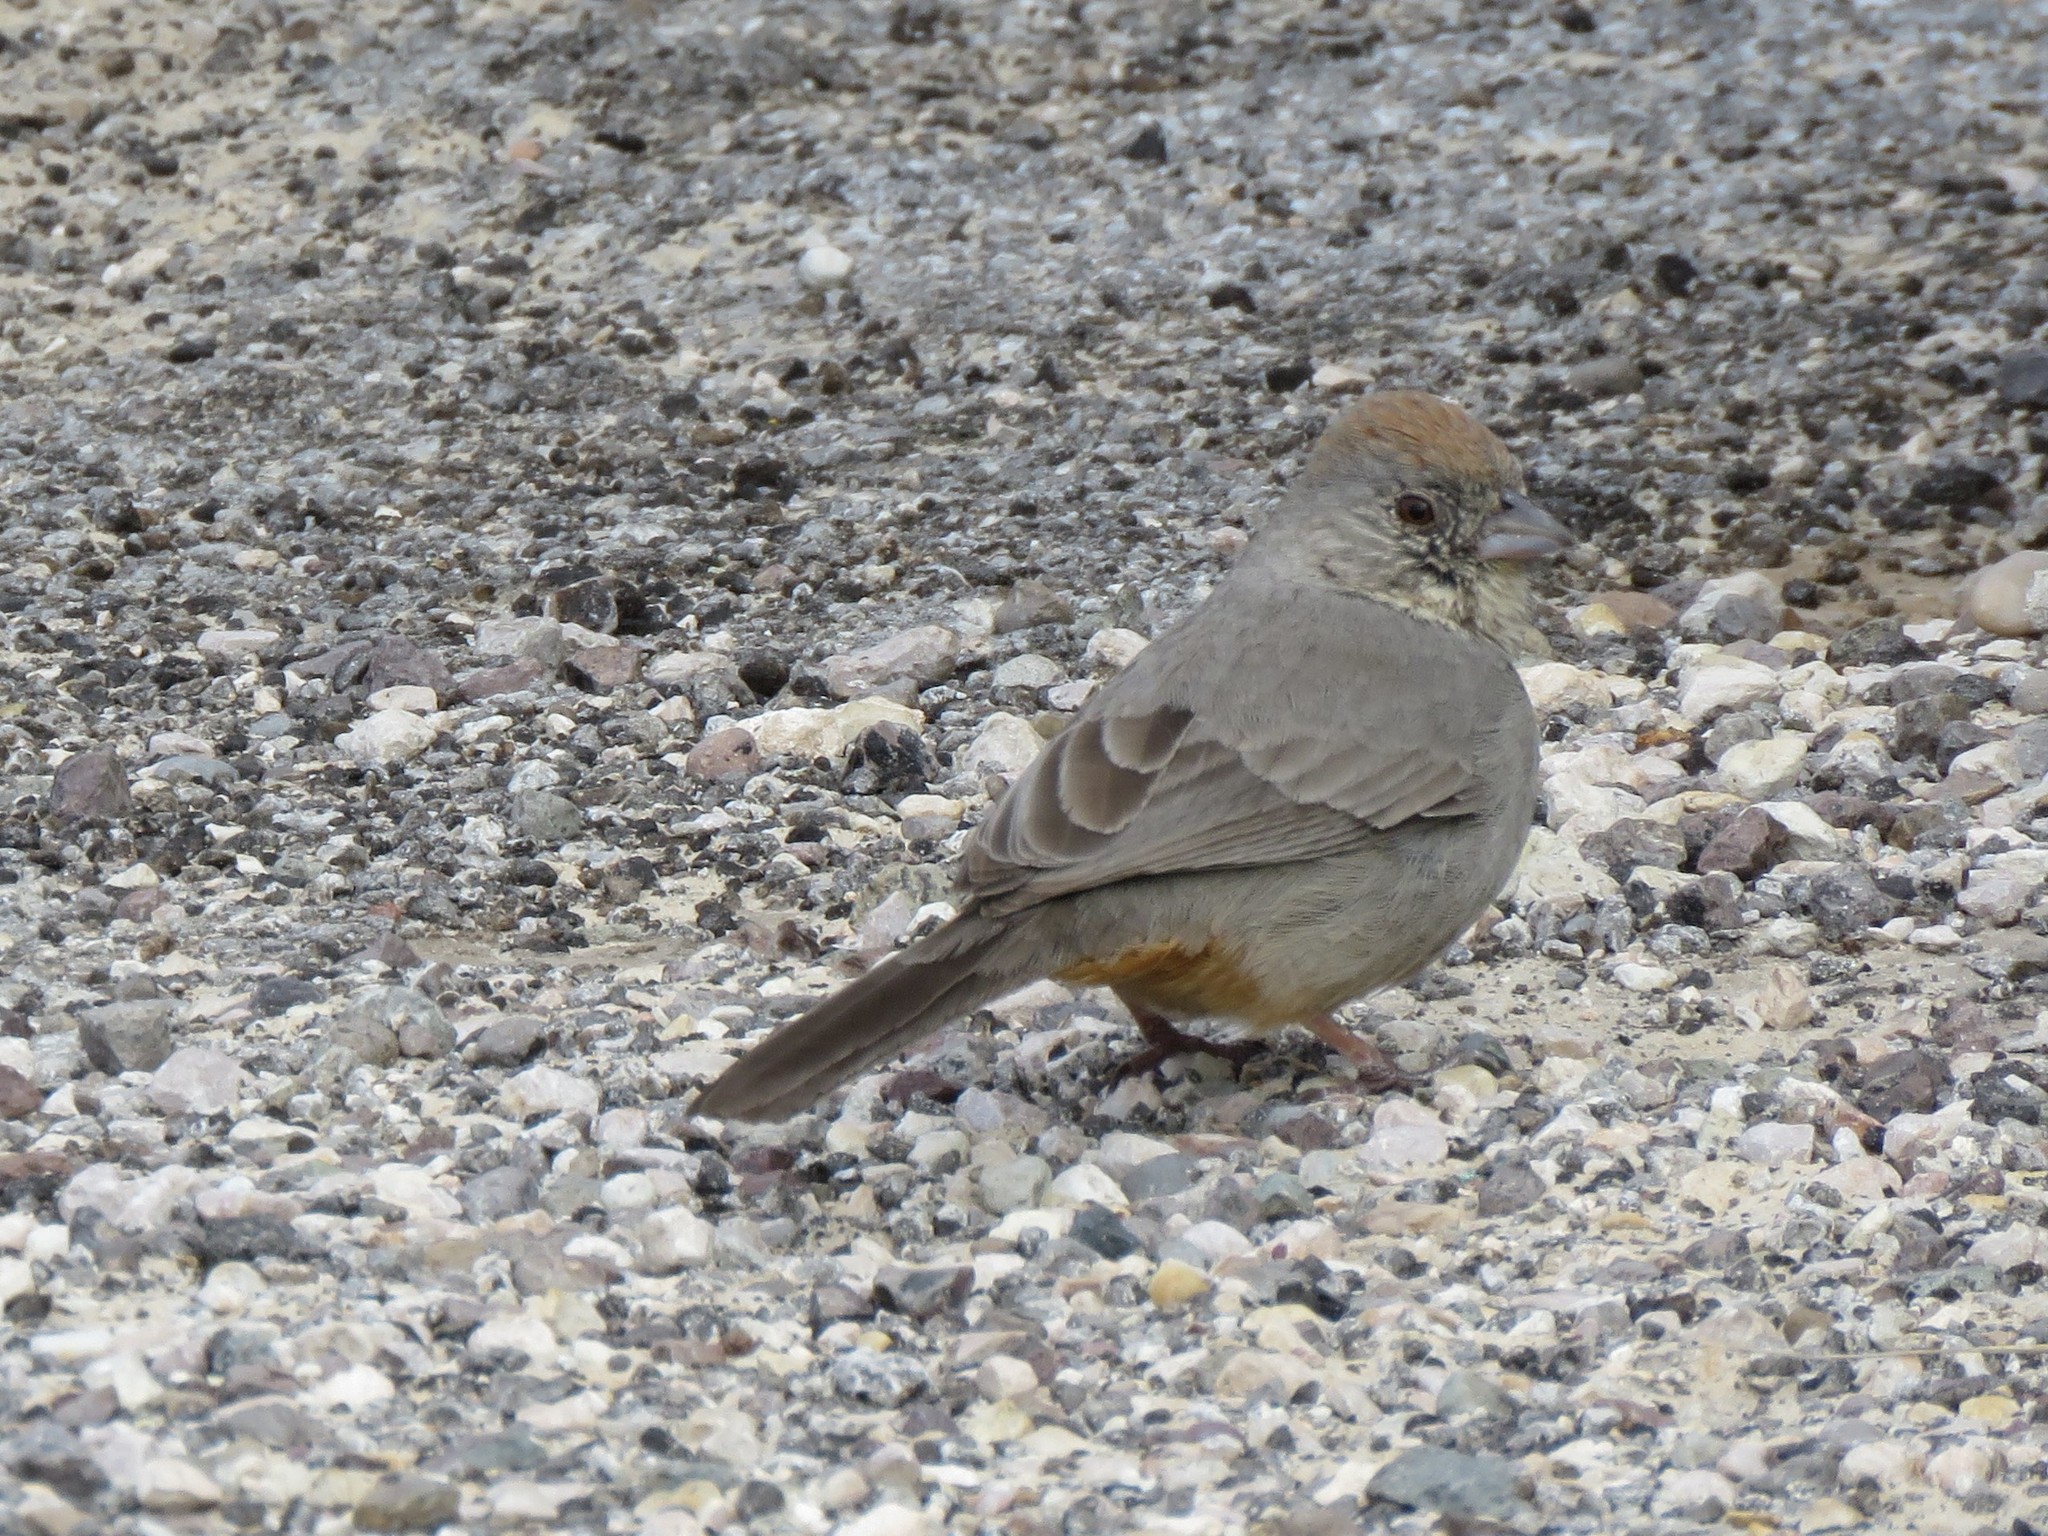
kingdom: Animalia
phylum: Chordata
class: Aves
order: Passeriformes
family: Passerellidae
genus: Melozone
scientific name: Melozone fusca
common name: Canyon towhee
